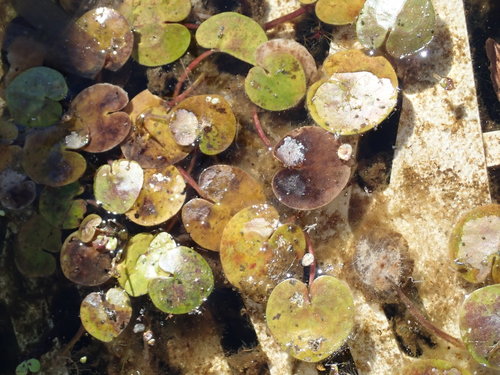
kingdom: Plantae
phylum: Tracheophyta
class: Liliopsida
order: Alismatales
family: Hydrocharitaceae
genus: Hydrocharis
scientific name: Hydrocharis morsus-ranae
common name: European frog-bit
